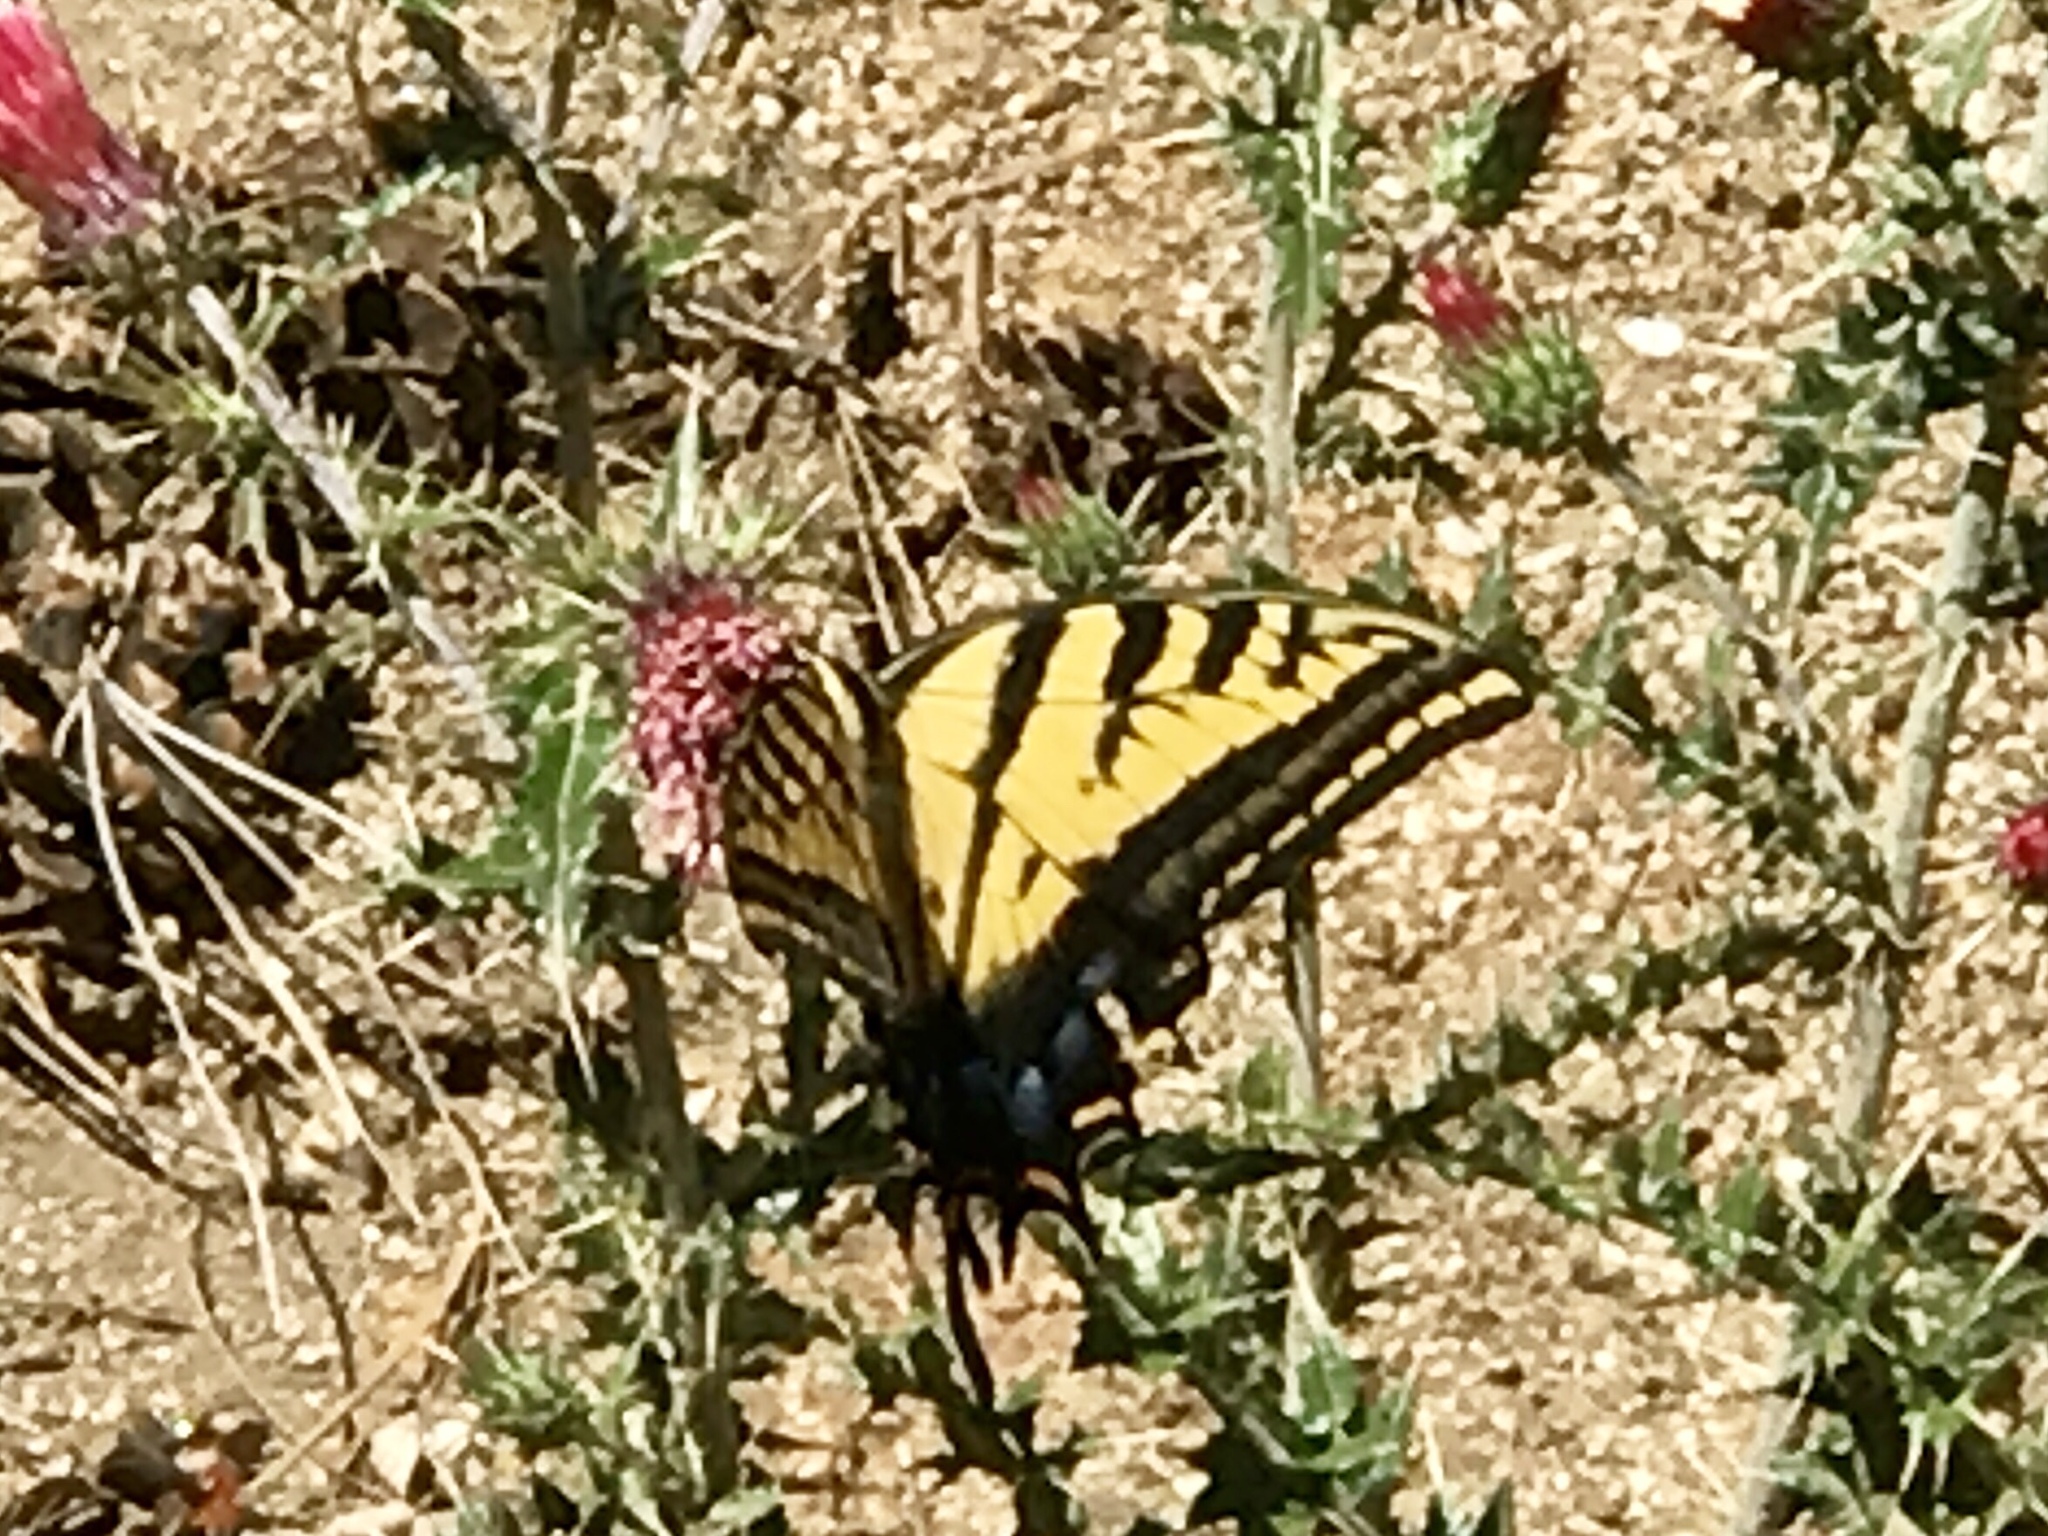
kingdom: Animalia
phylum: Arthropoda
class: Insecta
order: Lepidoptera
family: Papilionidae
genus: Papilio
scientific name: Papilio multicaudata
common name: Two-tailed tiger swallowtail
